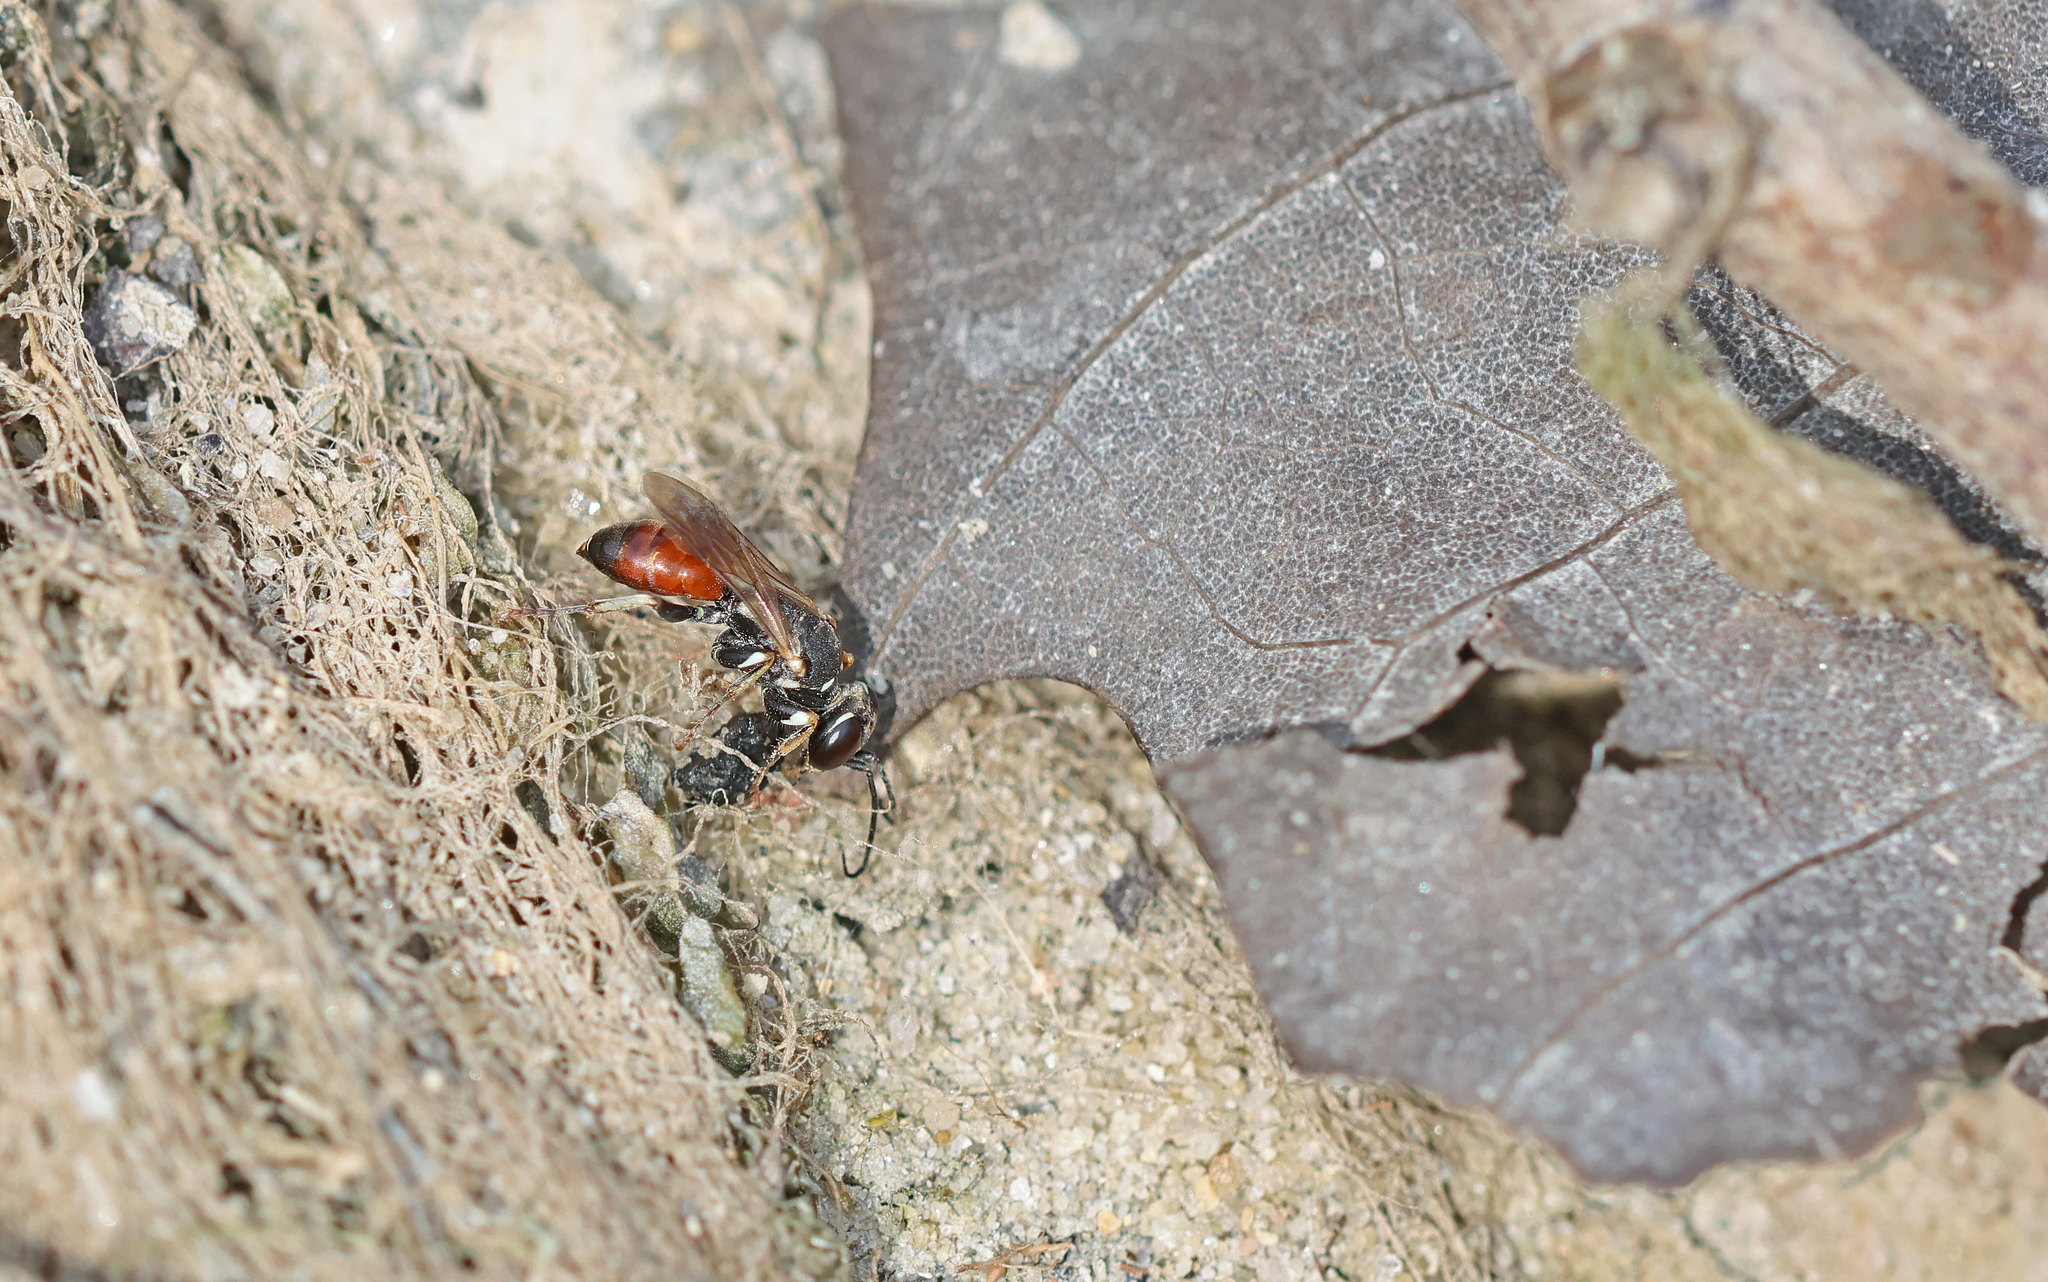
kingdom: Animalia
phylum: Arthropoda
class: Insecta
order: Hymenoptera
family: Crabronidae
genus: Dinetus
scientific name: Dinetus pictus
